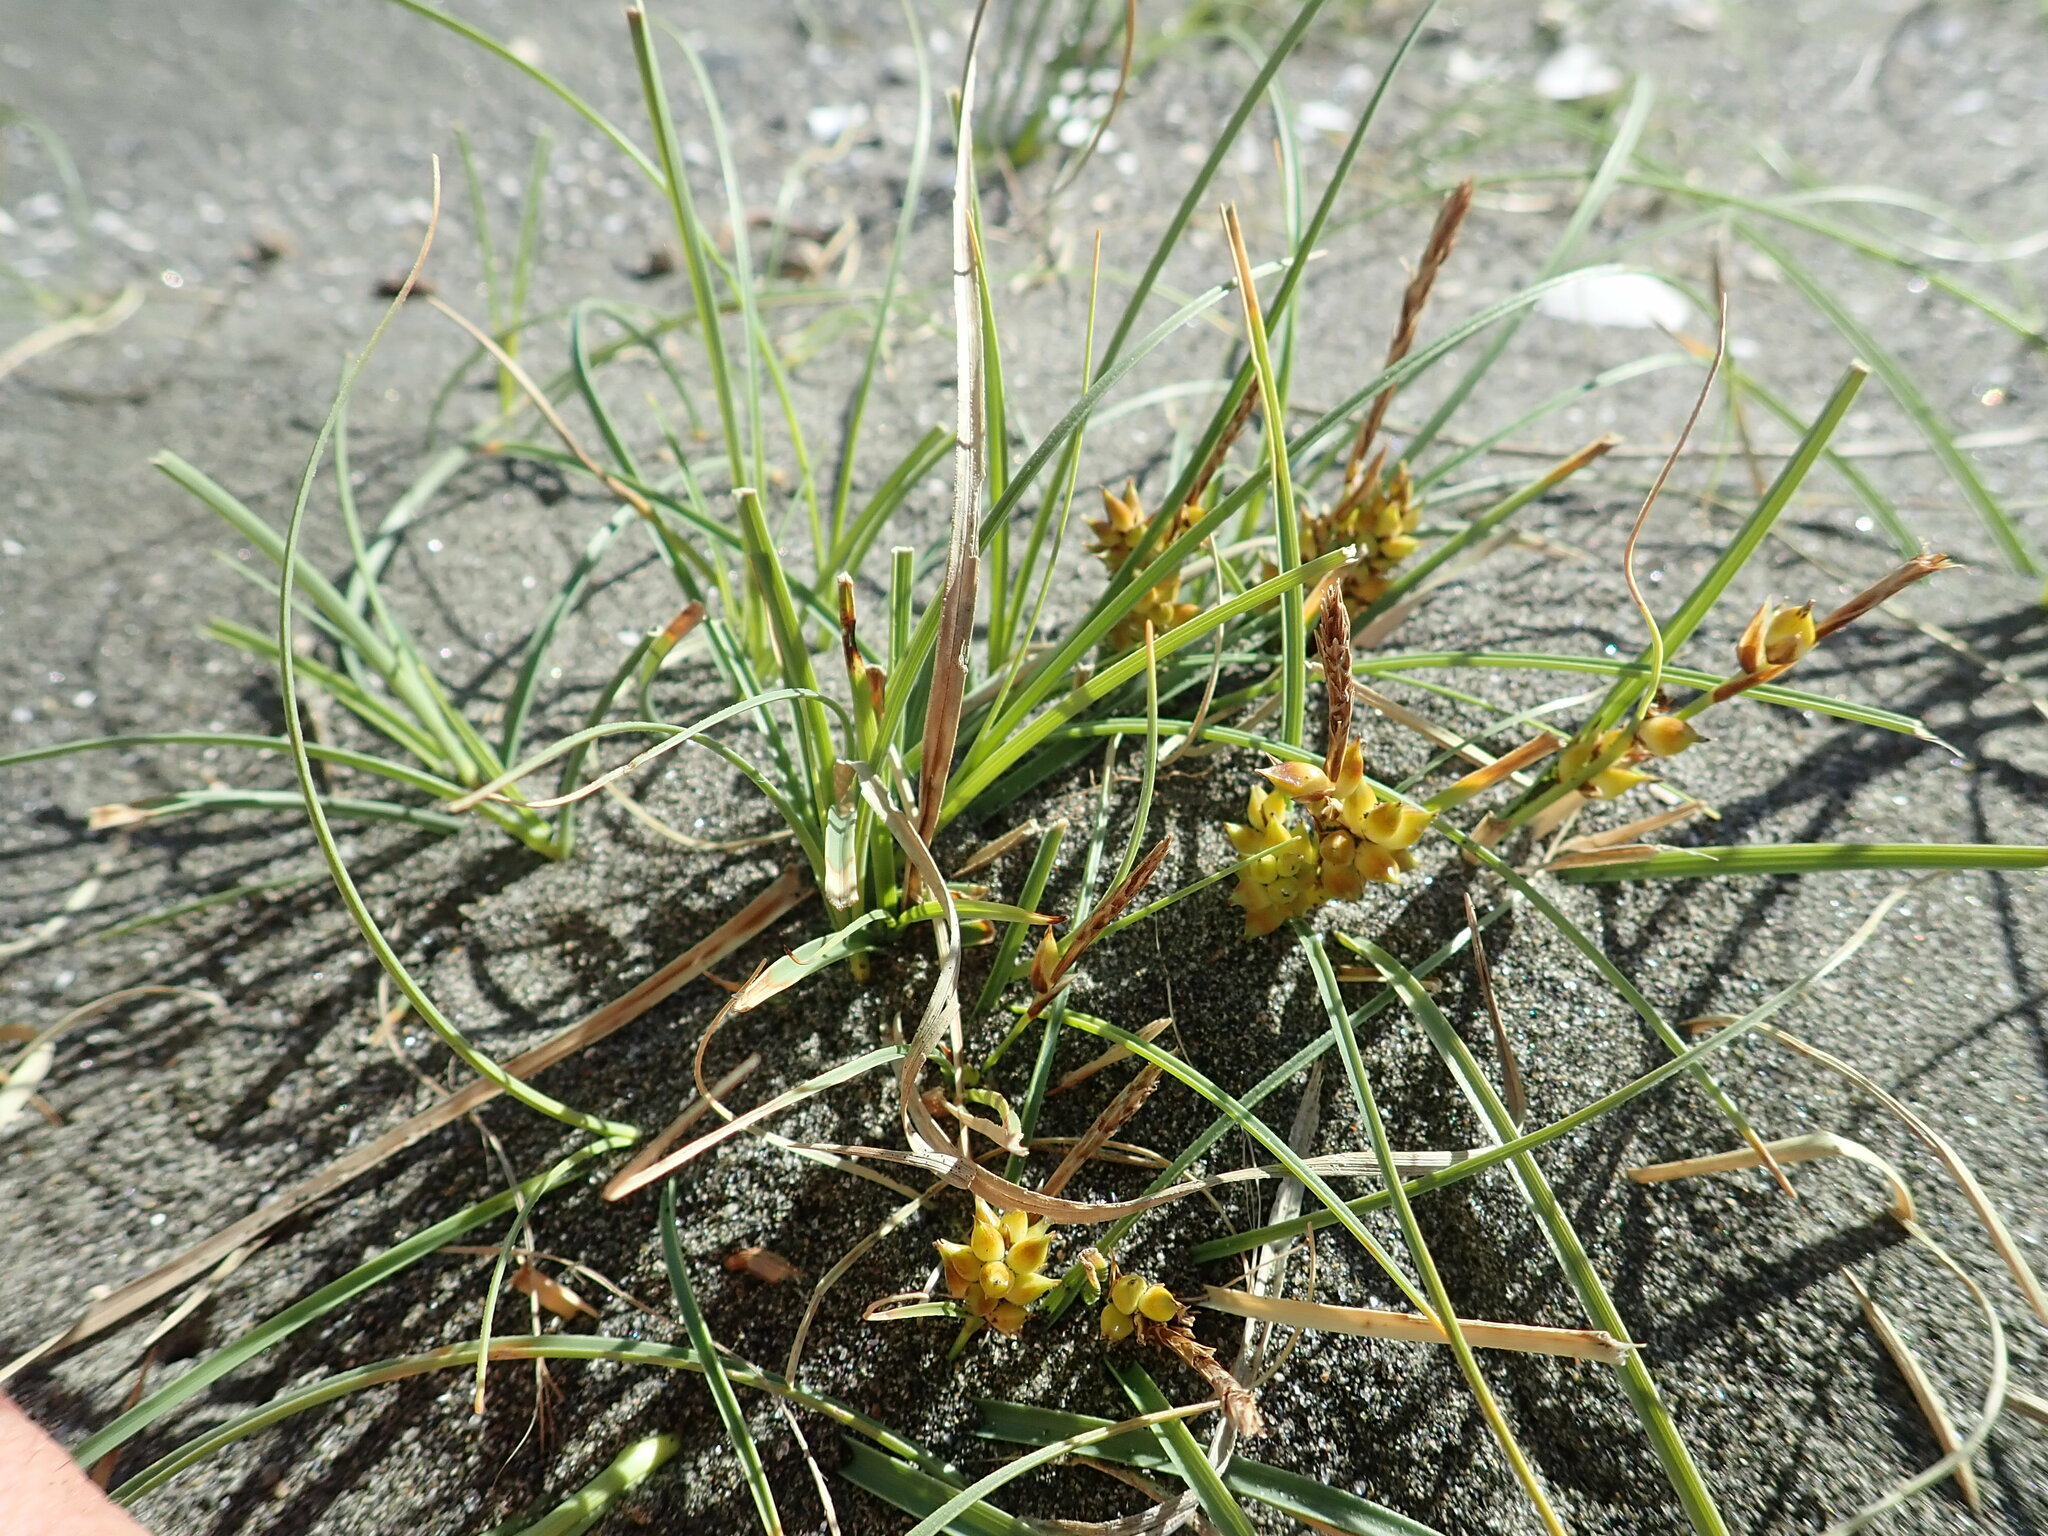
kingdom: Plantae
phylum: Tracheophyta
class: Liliopsida
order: Poales
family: Cyperaceae
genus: Carex
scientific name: Carex pumila
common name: Dwarf sedge
